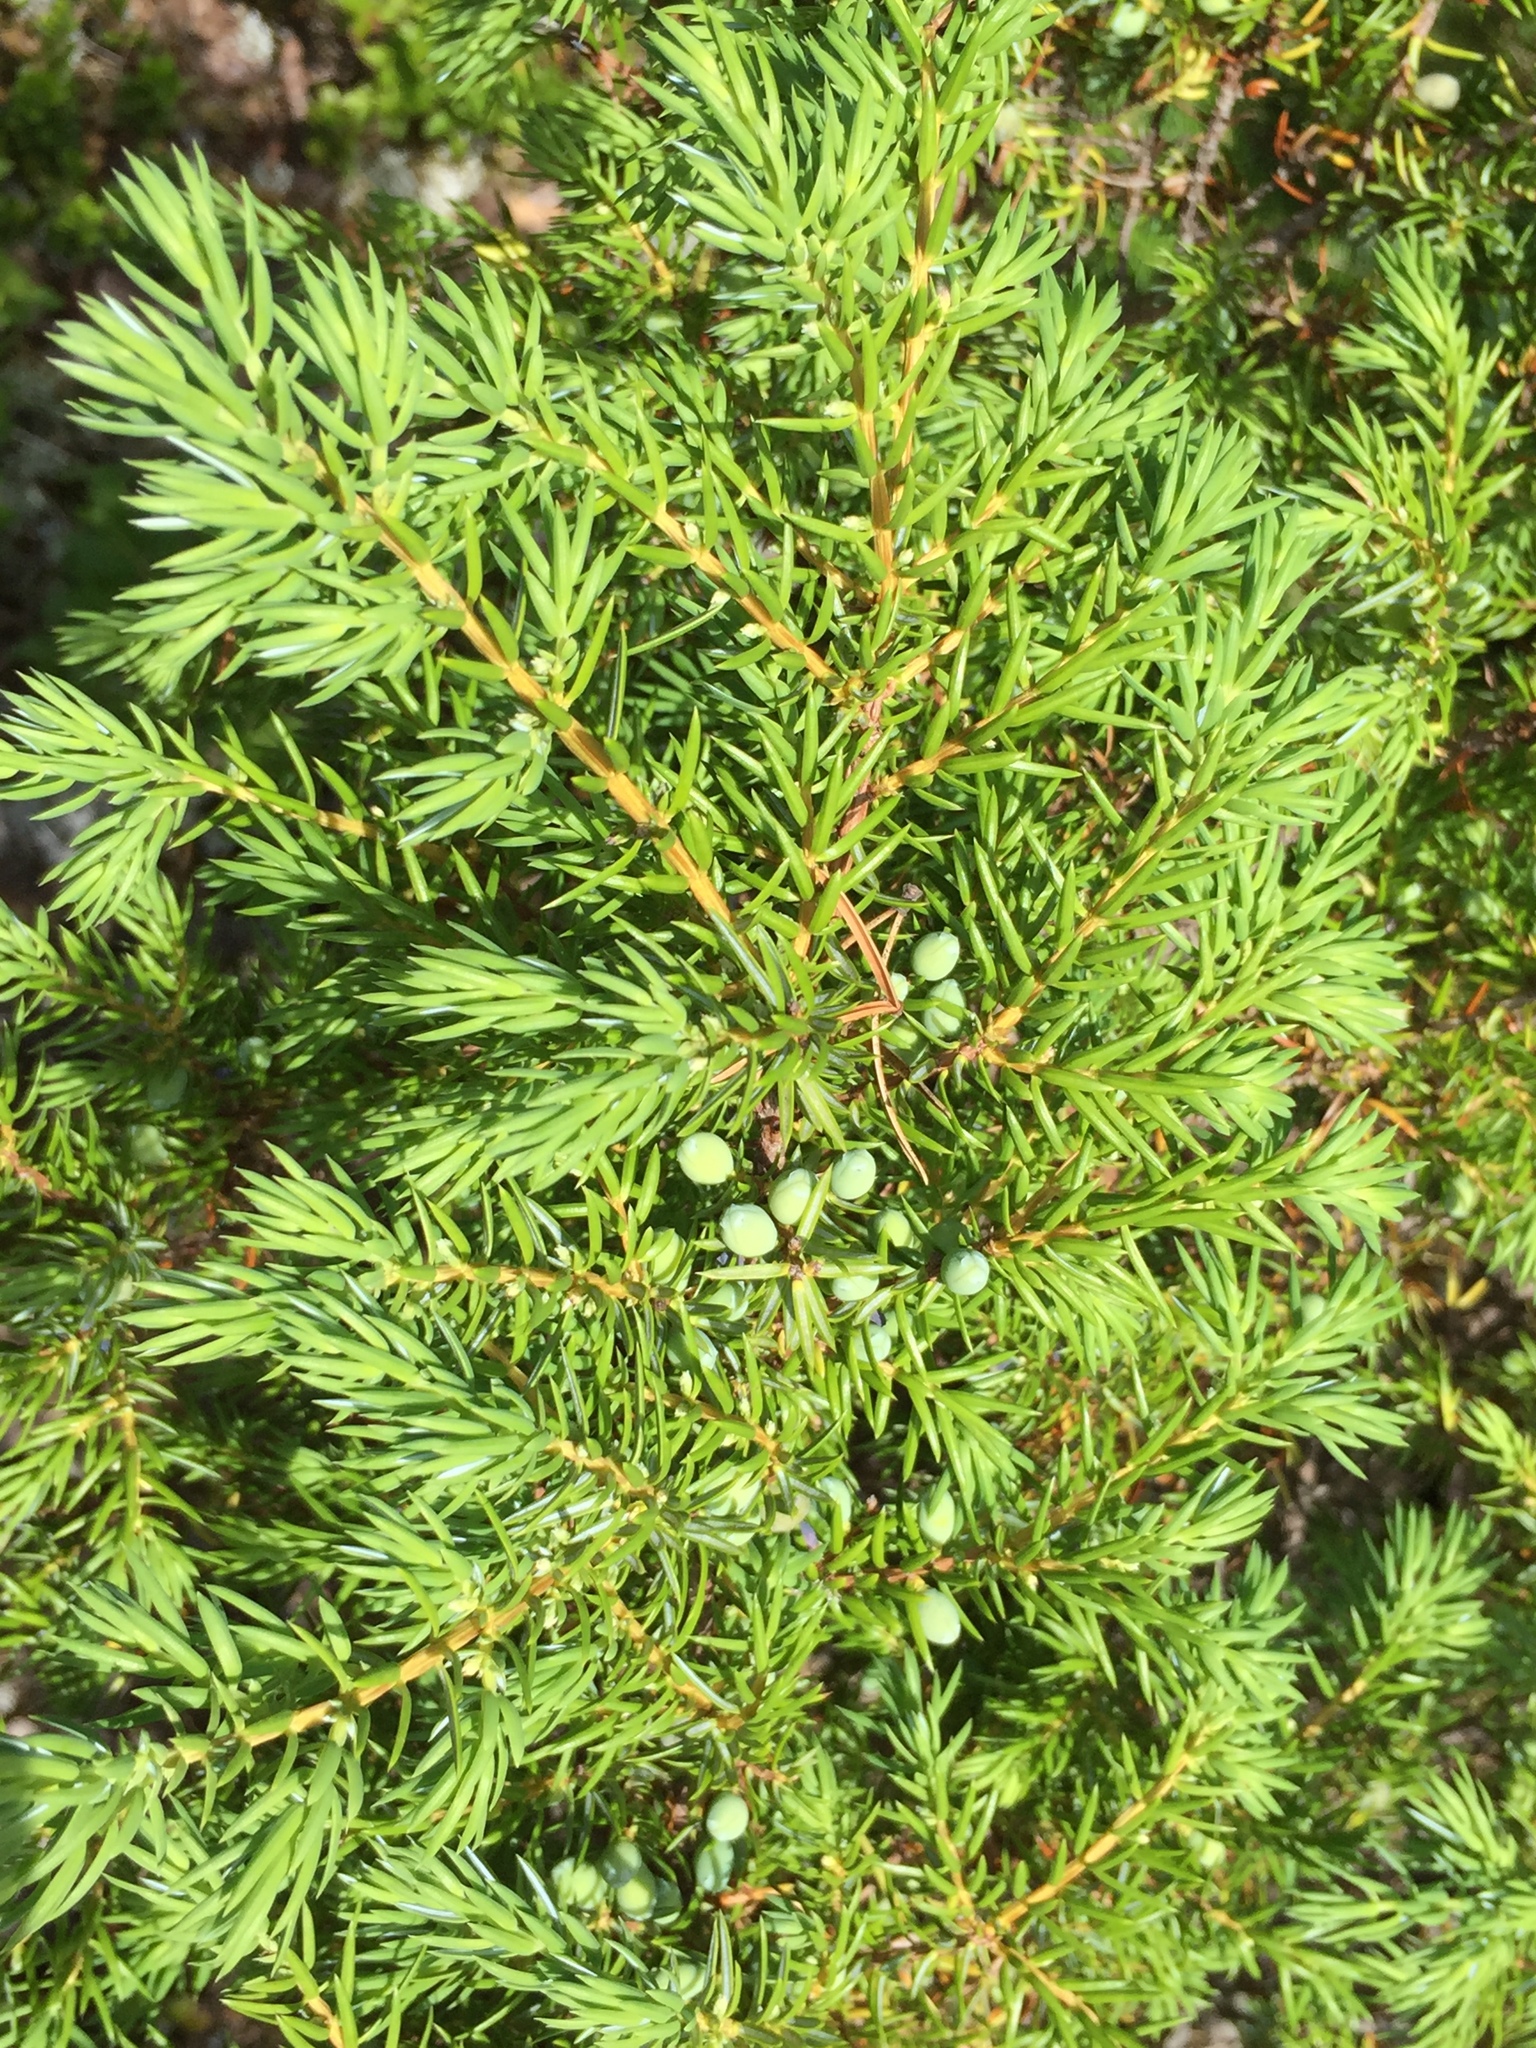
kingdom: Plantae
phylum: Tracheophyta
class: Pinopsida
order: Pinales
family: Cupressaceae
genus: Juniperus
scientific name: Juniperus communis
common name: Common juniper
